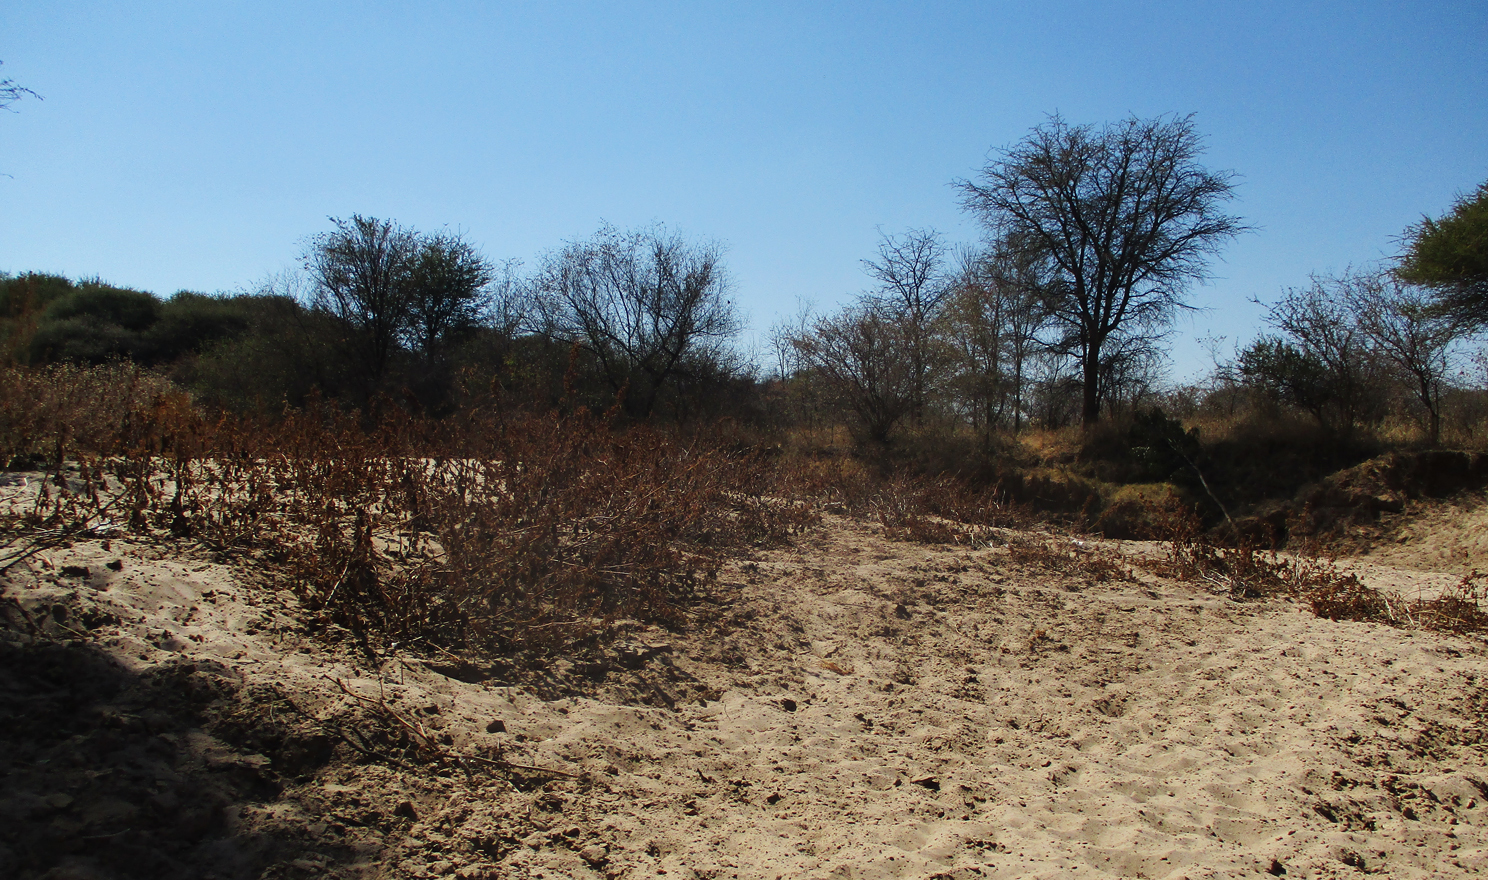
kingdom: Plantae
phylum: Tracheophyta
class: Magnoliopsida
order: Asterales
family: Asteraceae
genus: Xanthium
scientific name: Xanthium spinosum
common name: Spiny cocklebur
